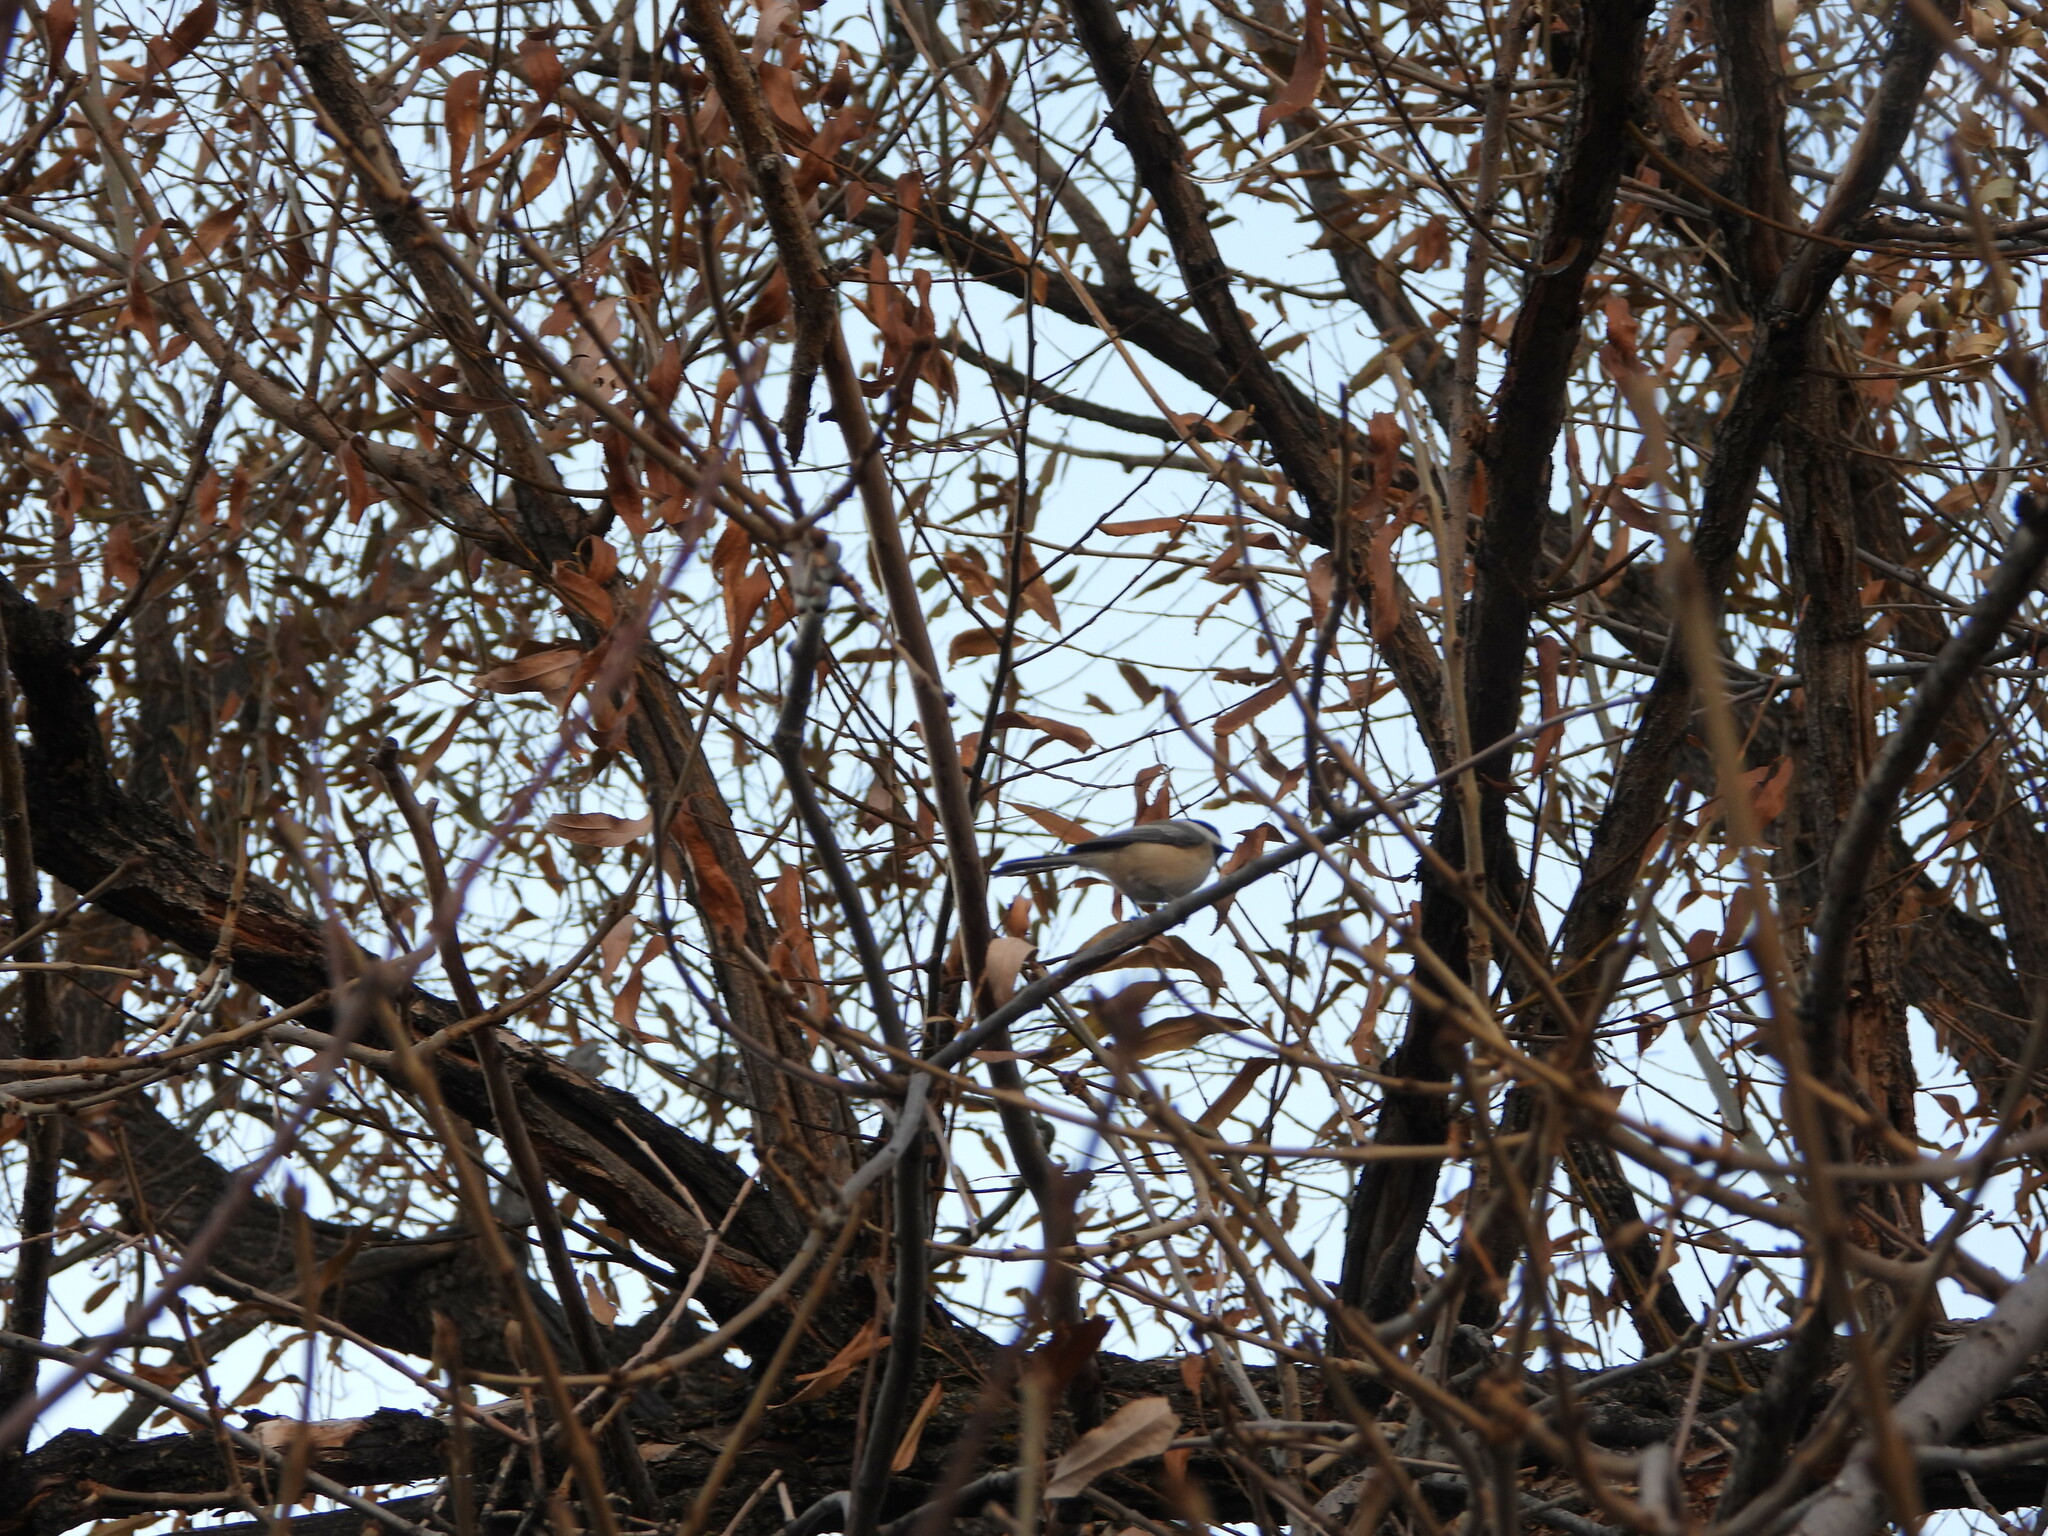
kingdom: Animalia
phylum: Chordata
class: Aves
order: Passeriformes
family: Paridae
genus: Poecile
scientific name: Poecile atricapillus
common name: Black-capped chickadee
